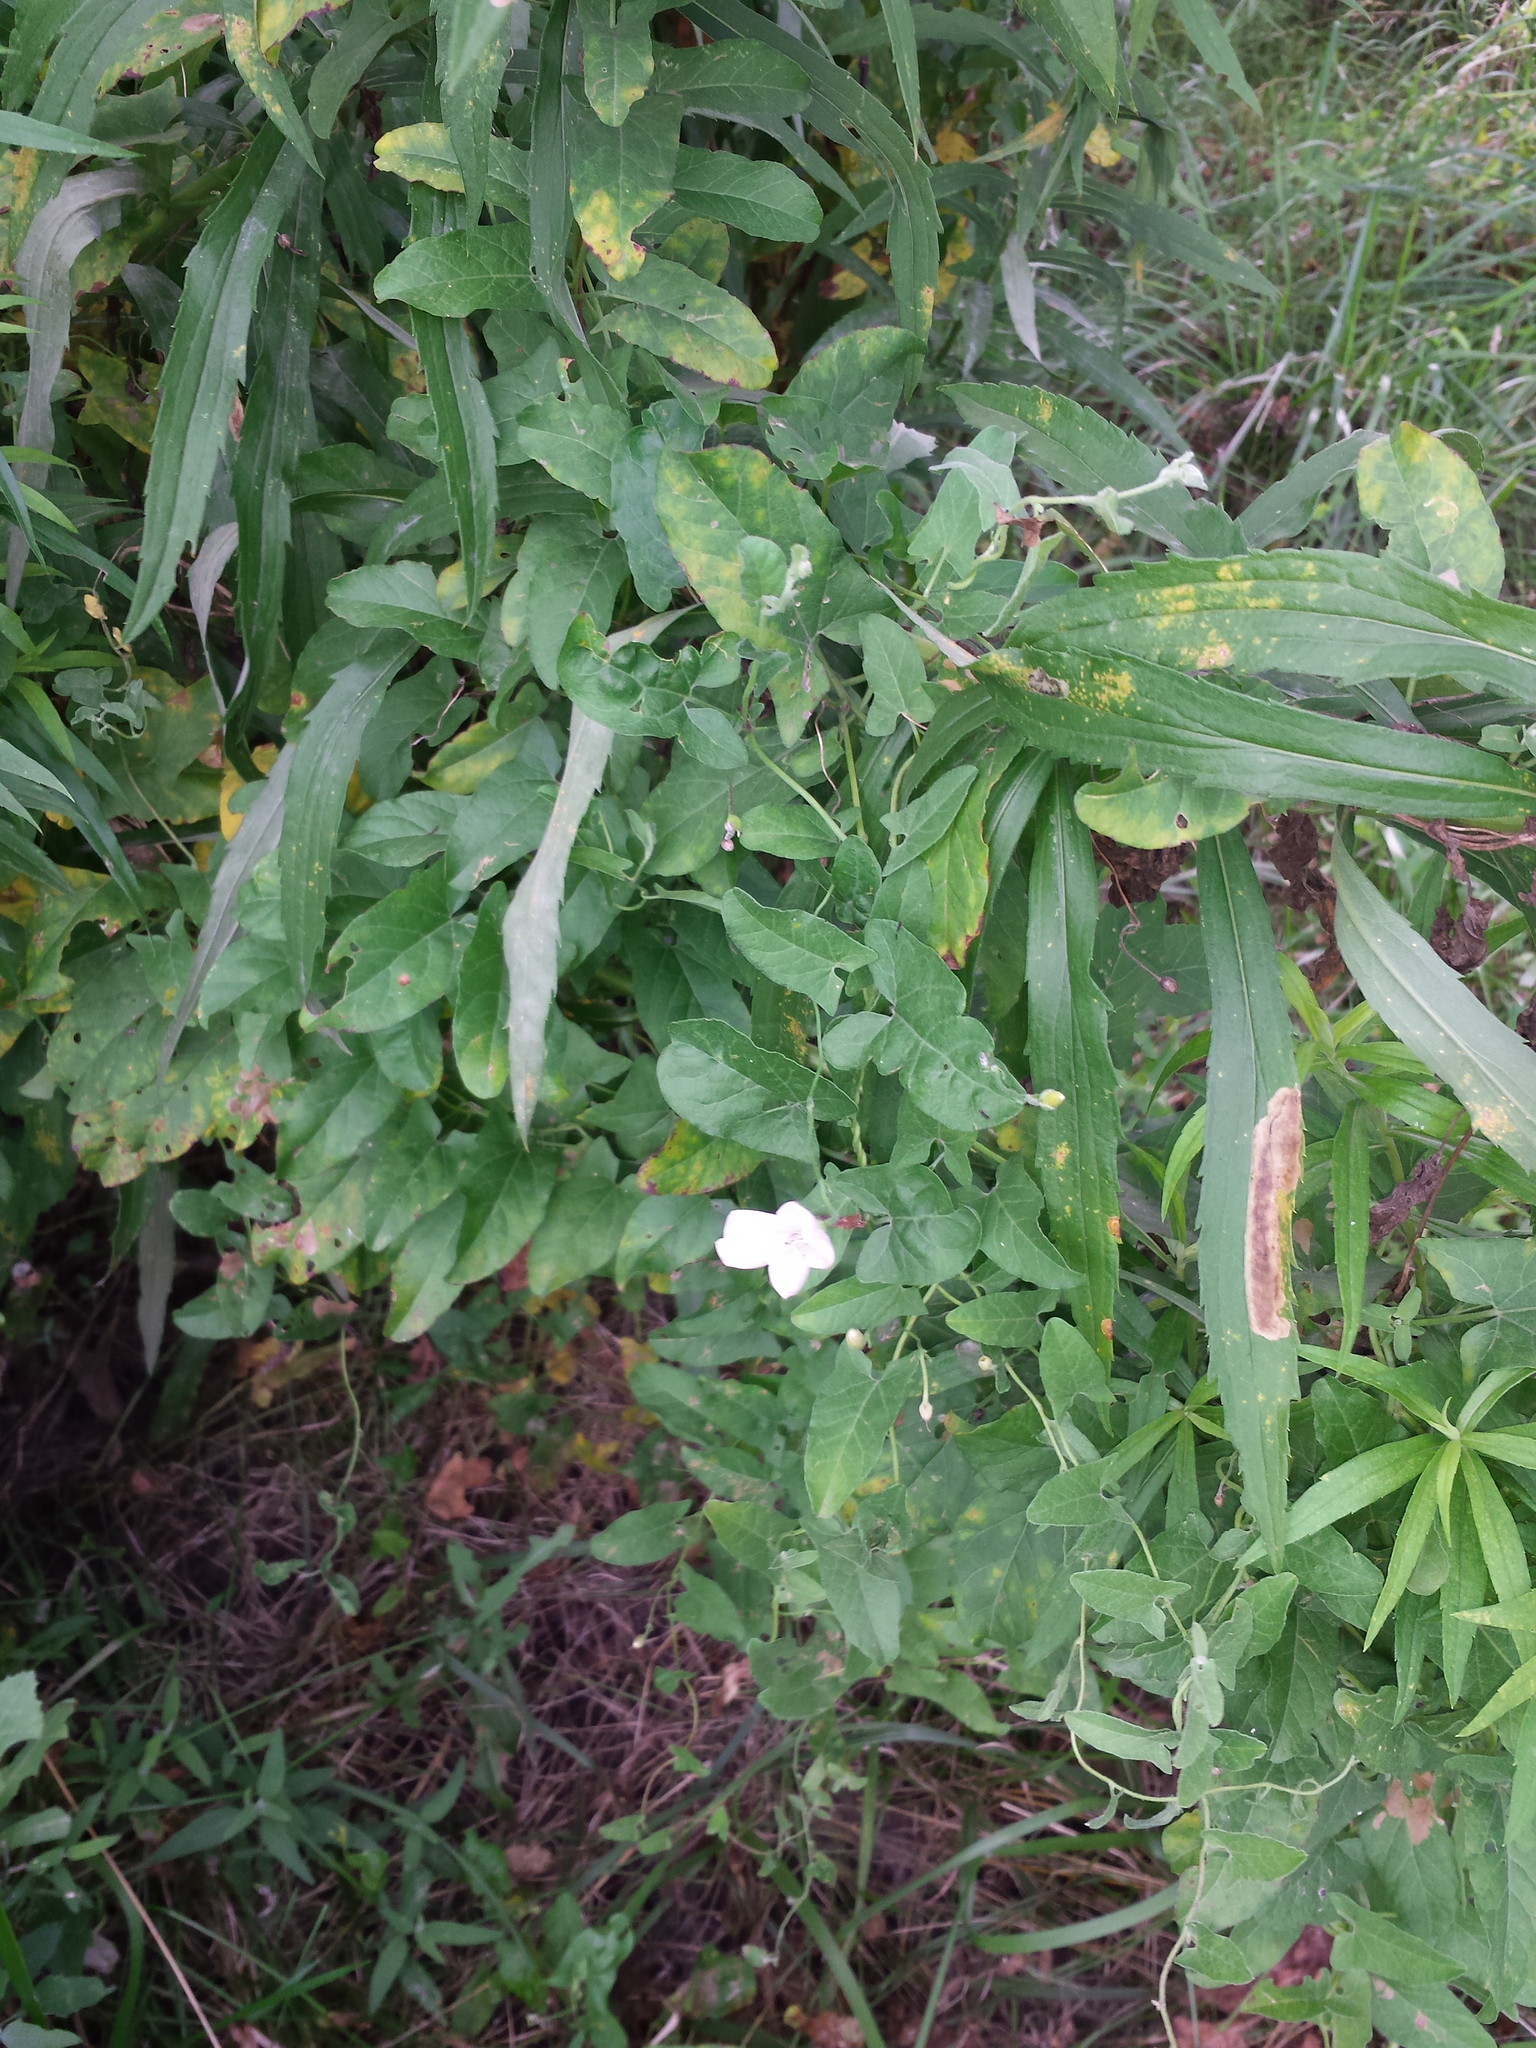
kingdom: Plantae
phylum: Tracheophyta
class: Magnoliopsida
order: Solanales
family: Convolvulaceae
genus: Convolvulus
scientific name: Convolvulus arvensis
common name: Field bindweed
